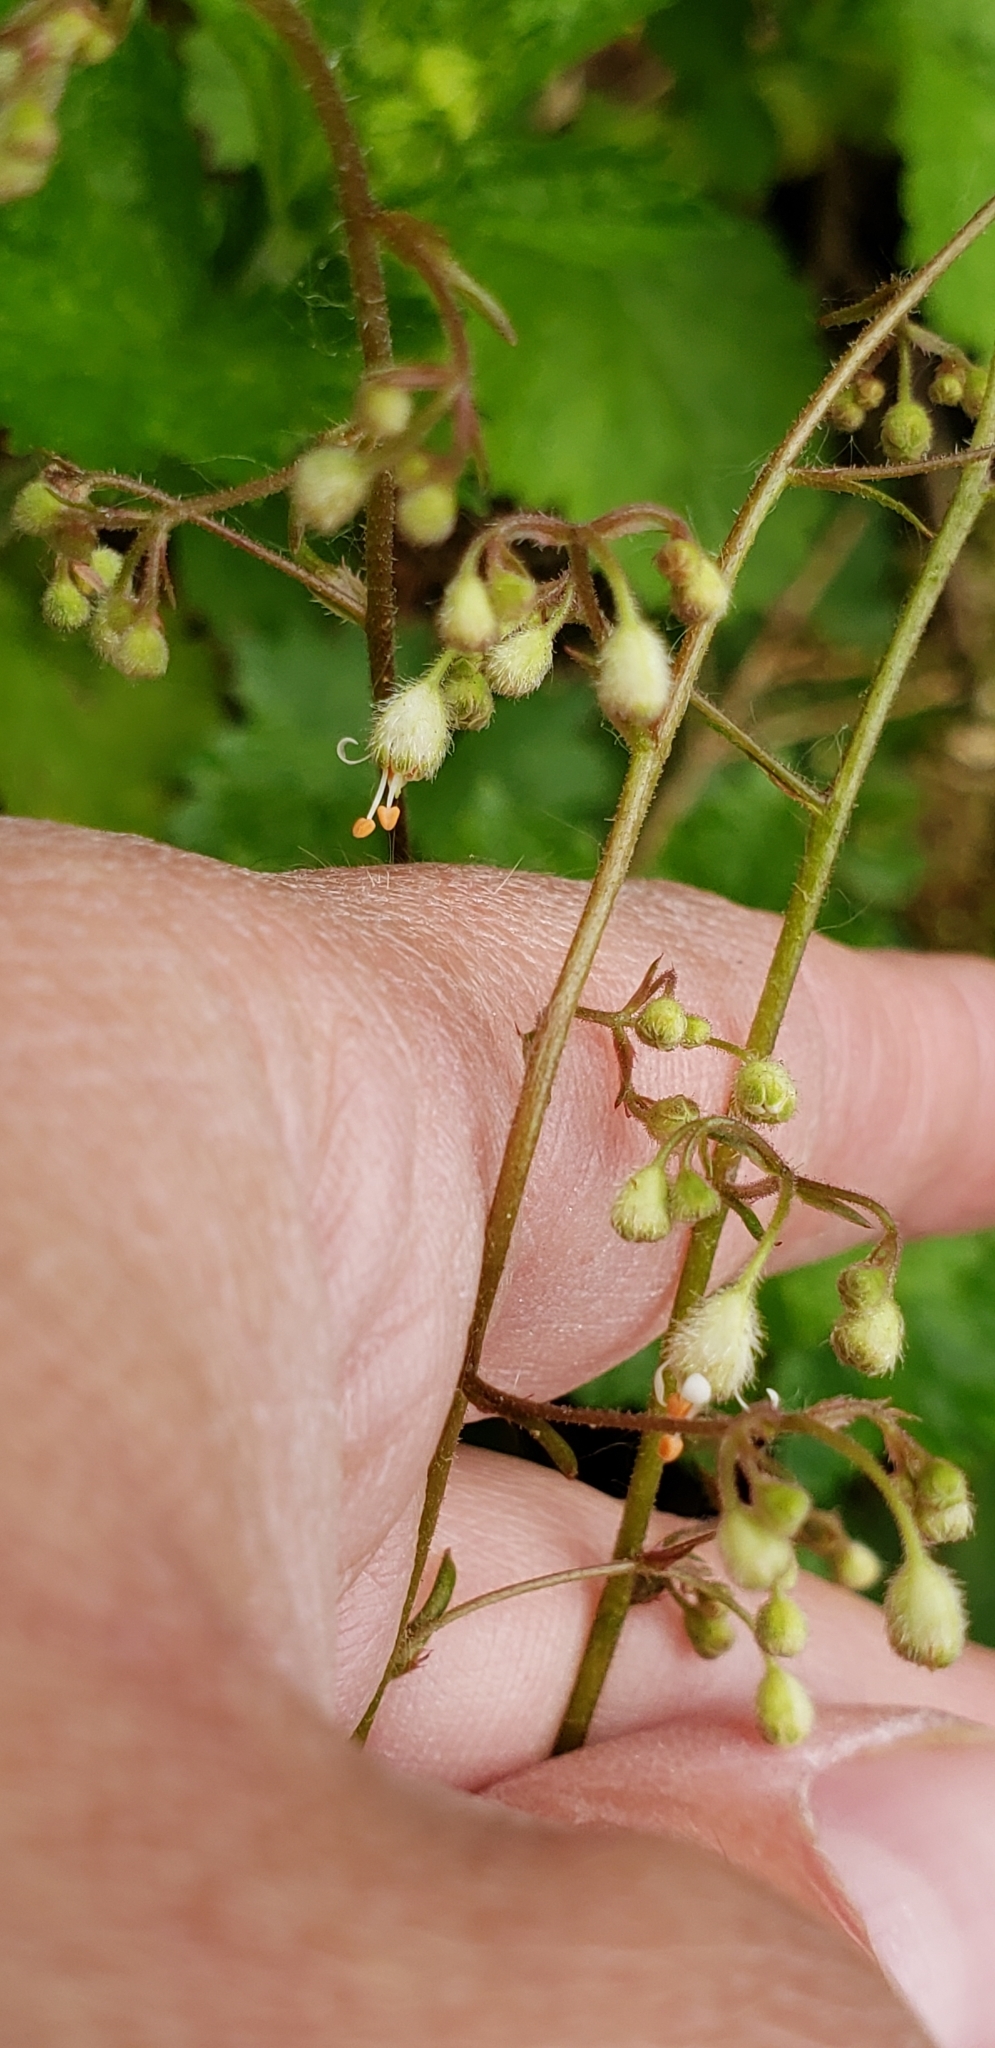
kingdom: Plantae
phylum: Tracheophyta
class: Magnoliopsida
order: Saxifragales
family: Saxifragaceae
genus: Heuchera
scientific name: Heuchera glabra
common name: Alpine alumroot
